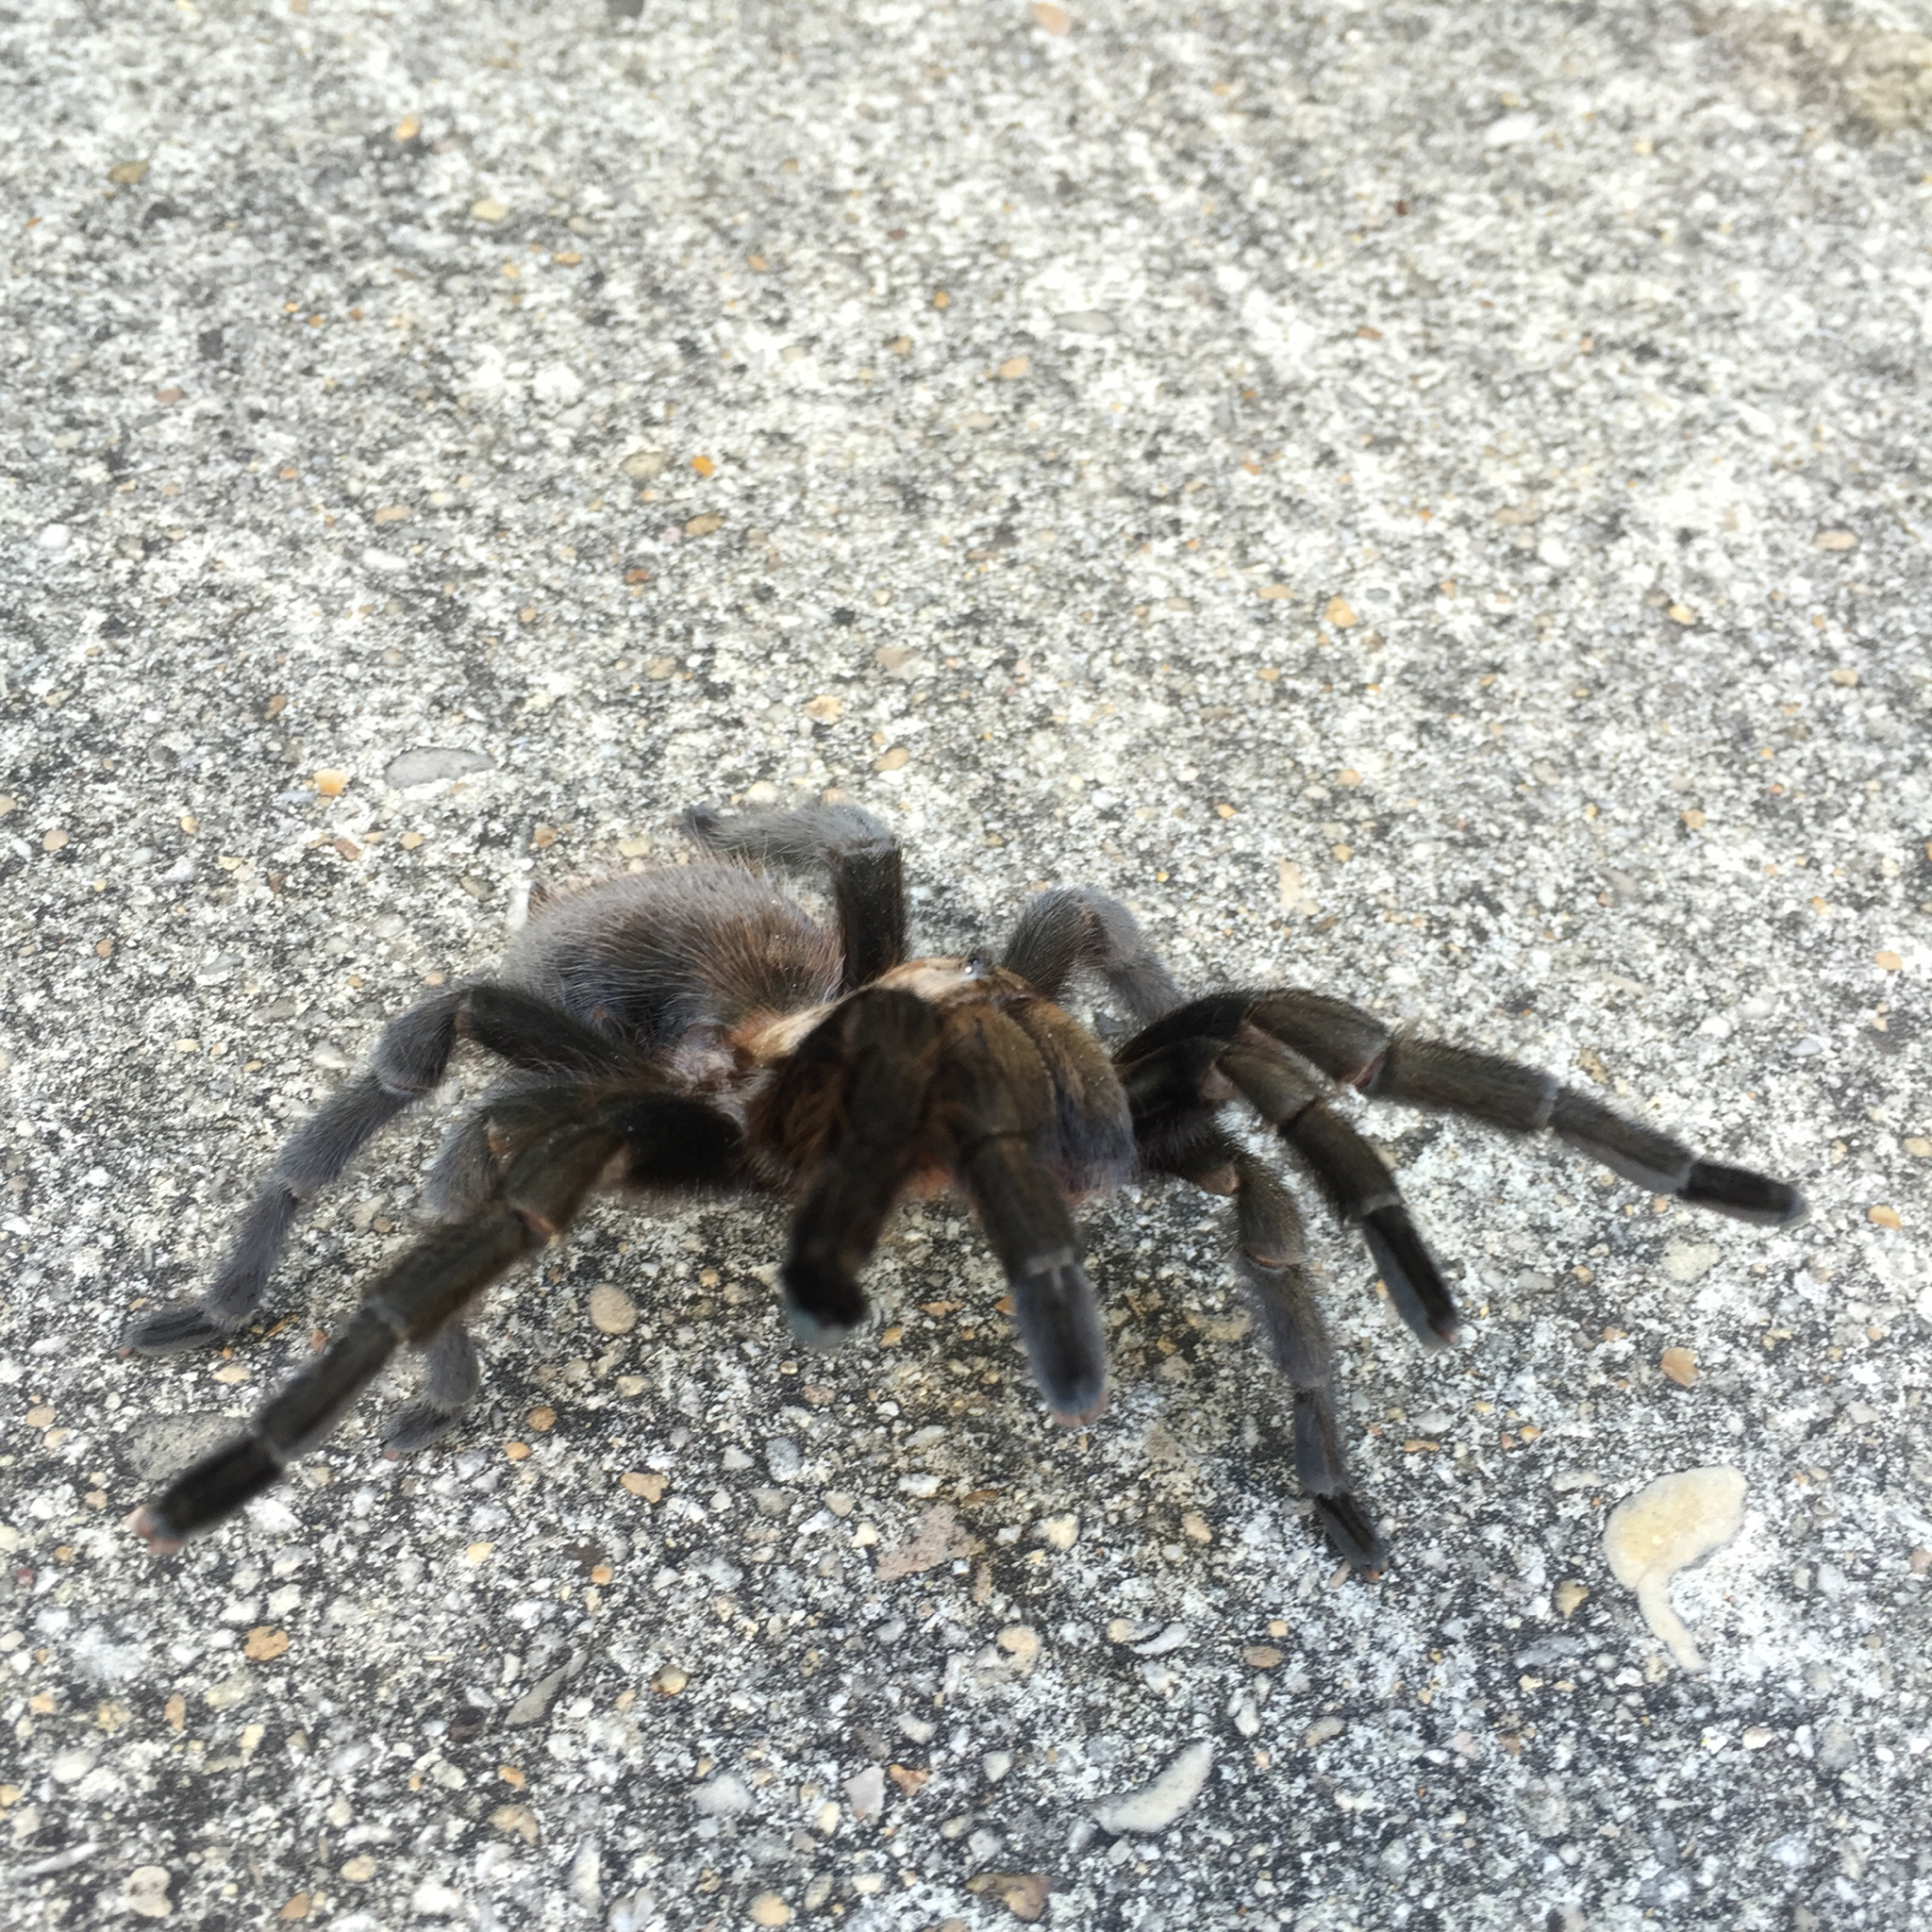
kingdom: Animalia
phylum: Arthropoda
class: Arachnida
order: Araneae
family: Theraphosidae
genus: Aphonopelma
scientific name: Aphonopelma anax
